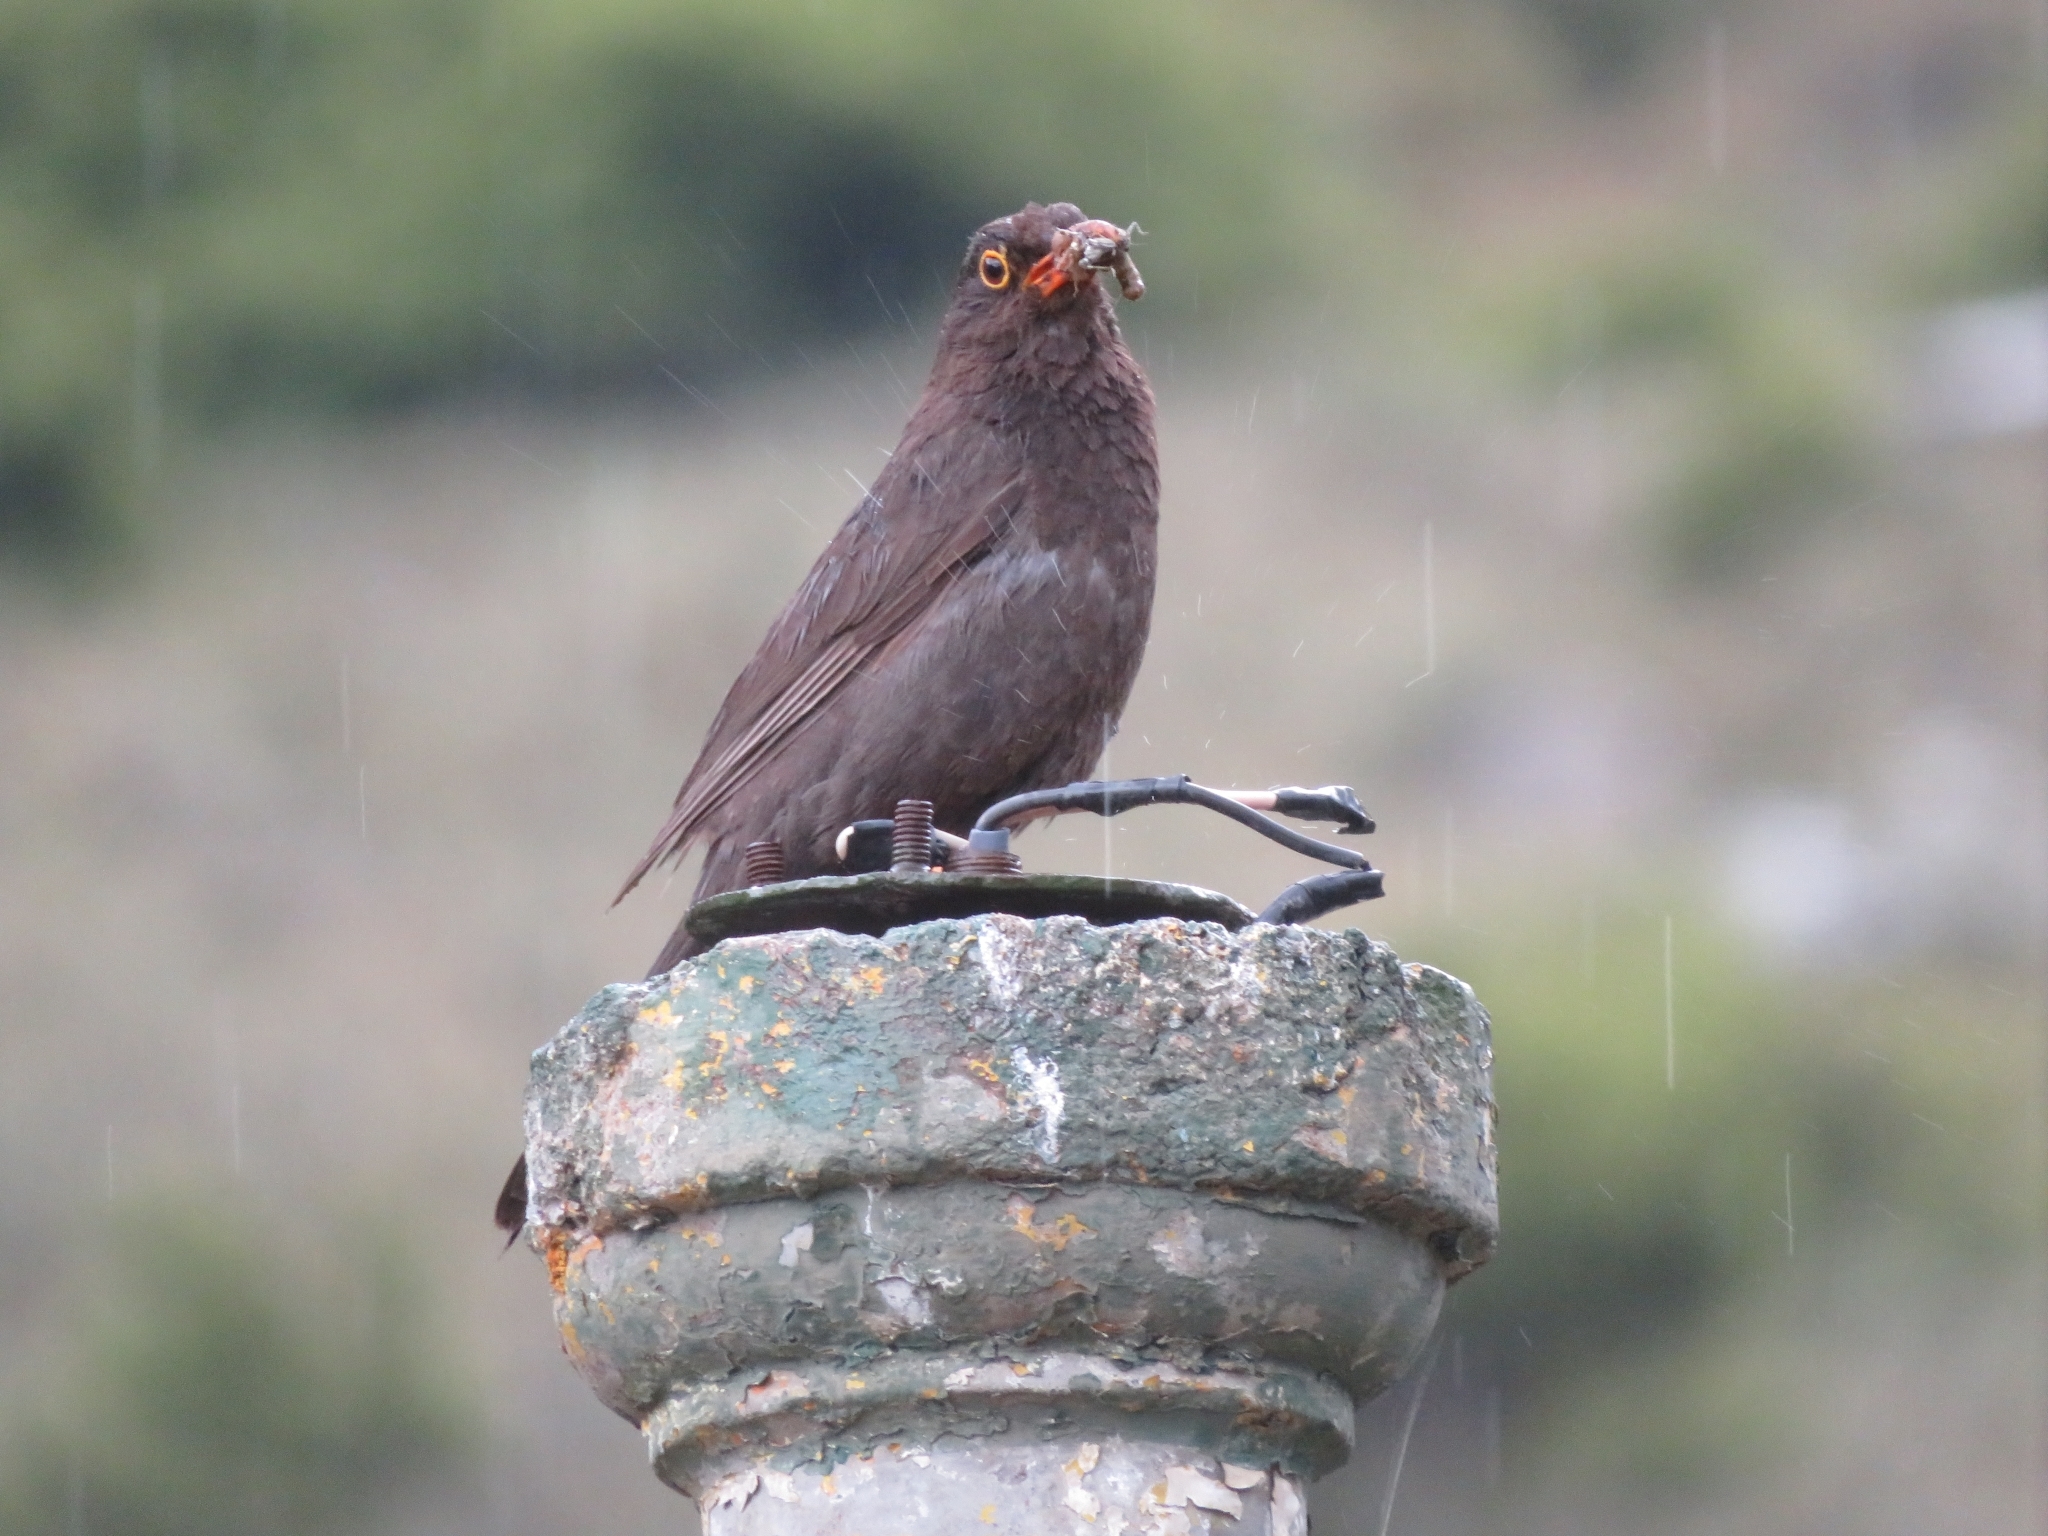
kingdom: Animalia
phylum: Chordata
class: Aves
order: Passeriformes
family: Turdidae
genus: Turdus
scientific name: Turdus chiguanco
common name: Chiguanco thrush
